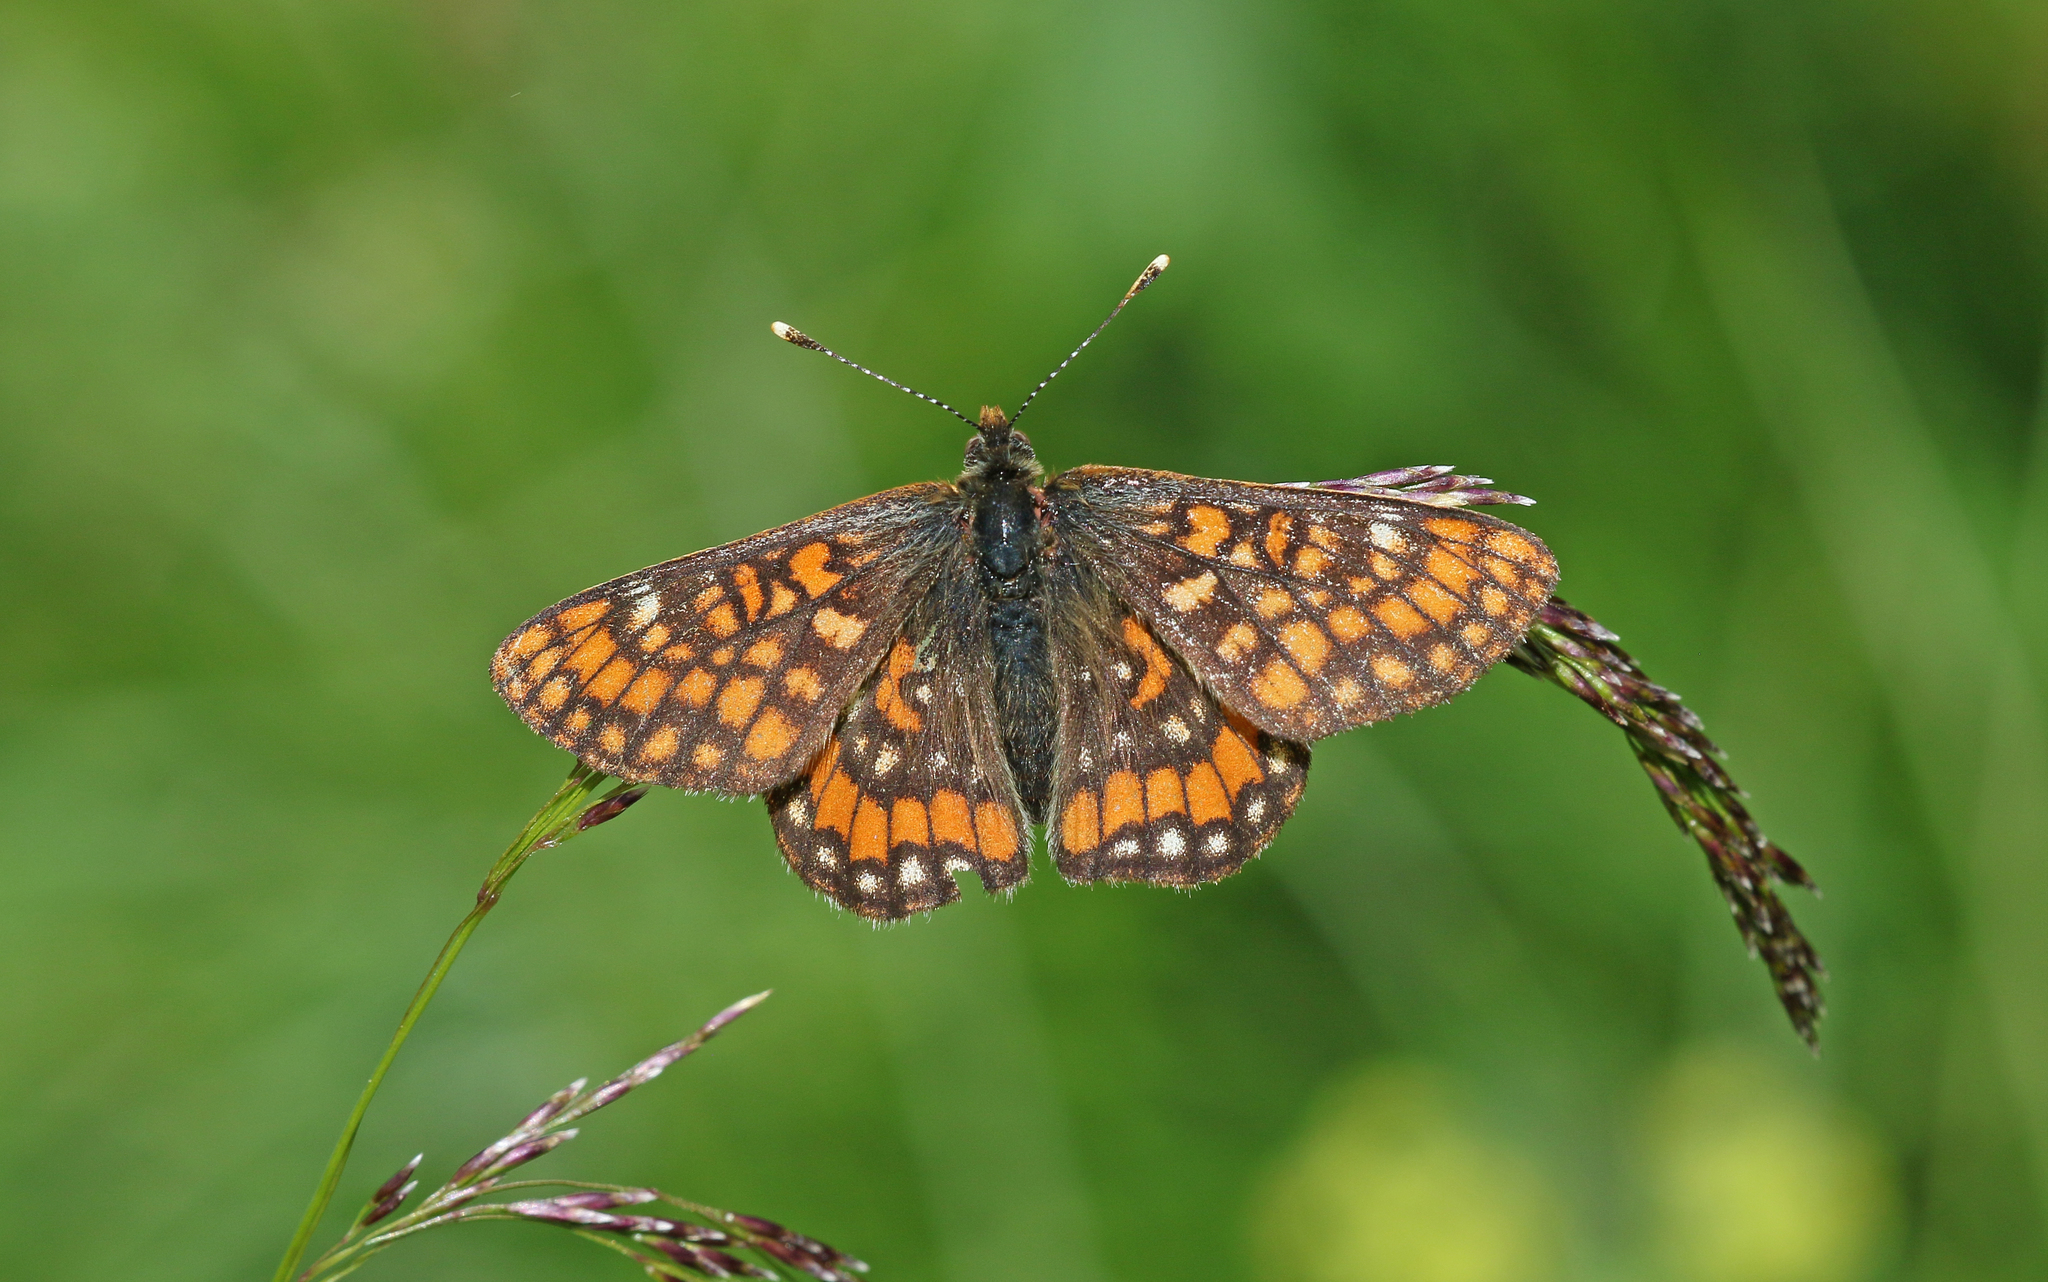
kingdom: Animalia
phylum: Arthropoda
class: Insecta
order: Lepidoptera
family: Nymphalidae
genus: Hypodryas
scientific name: Hypodryas intermedia
